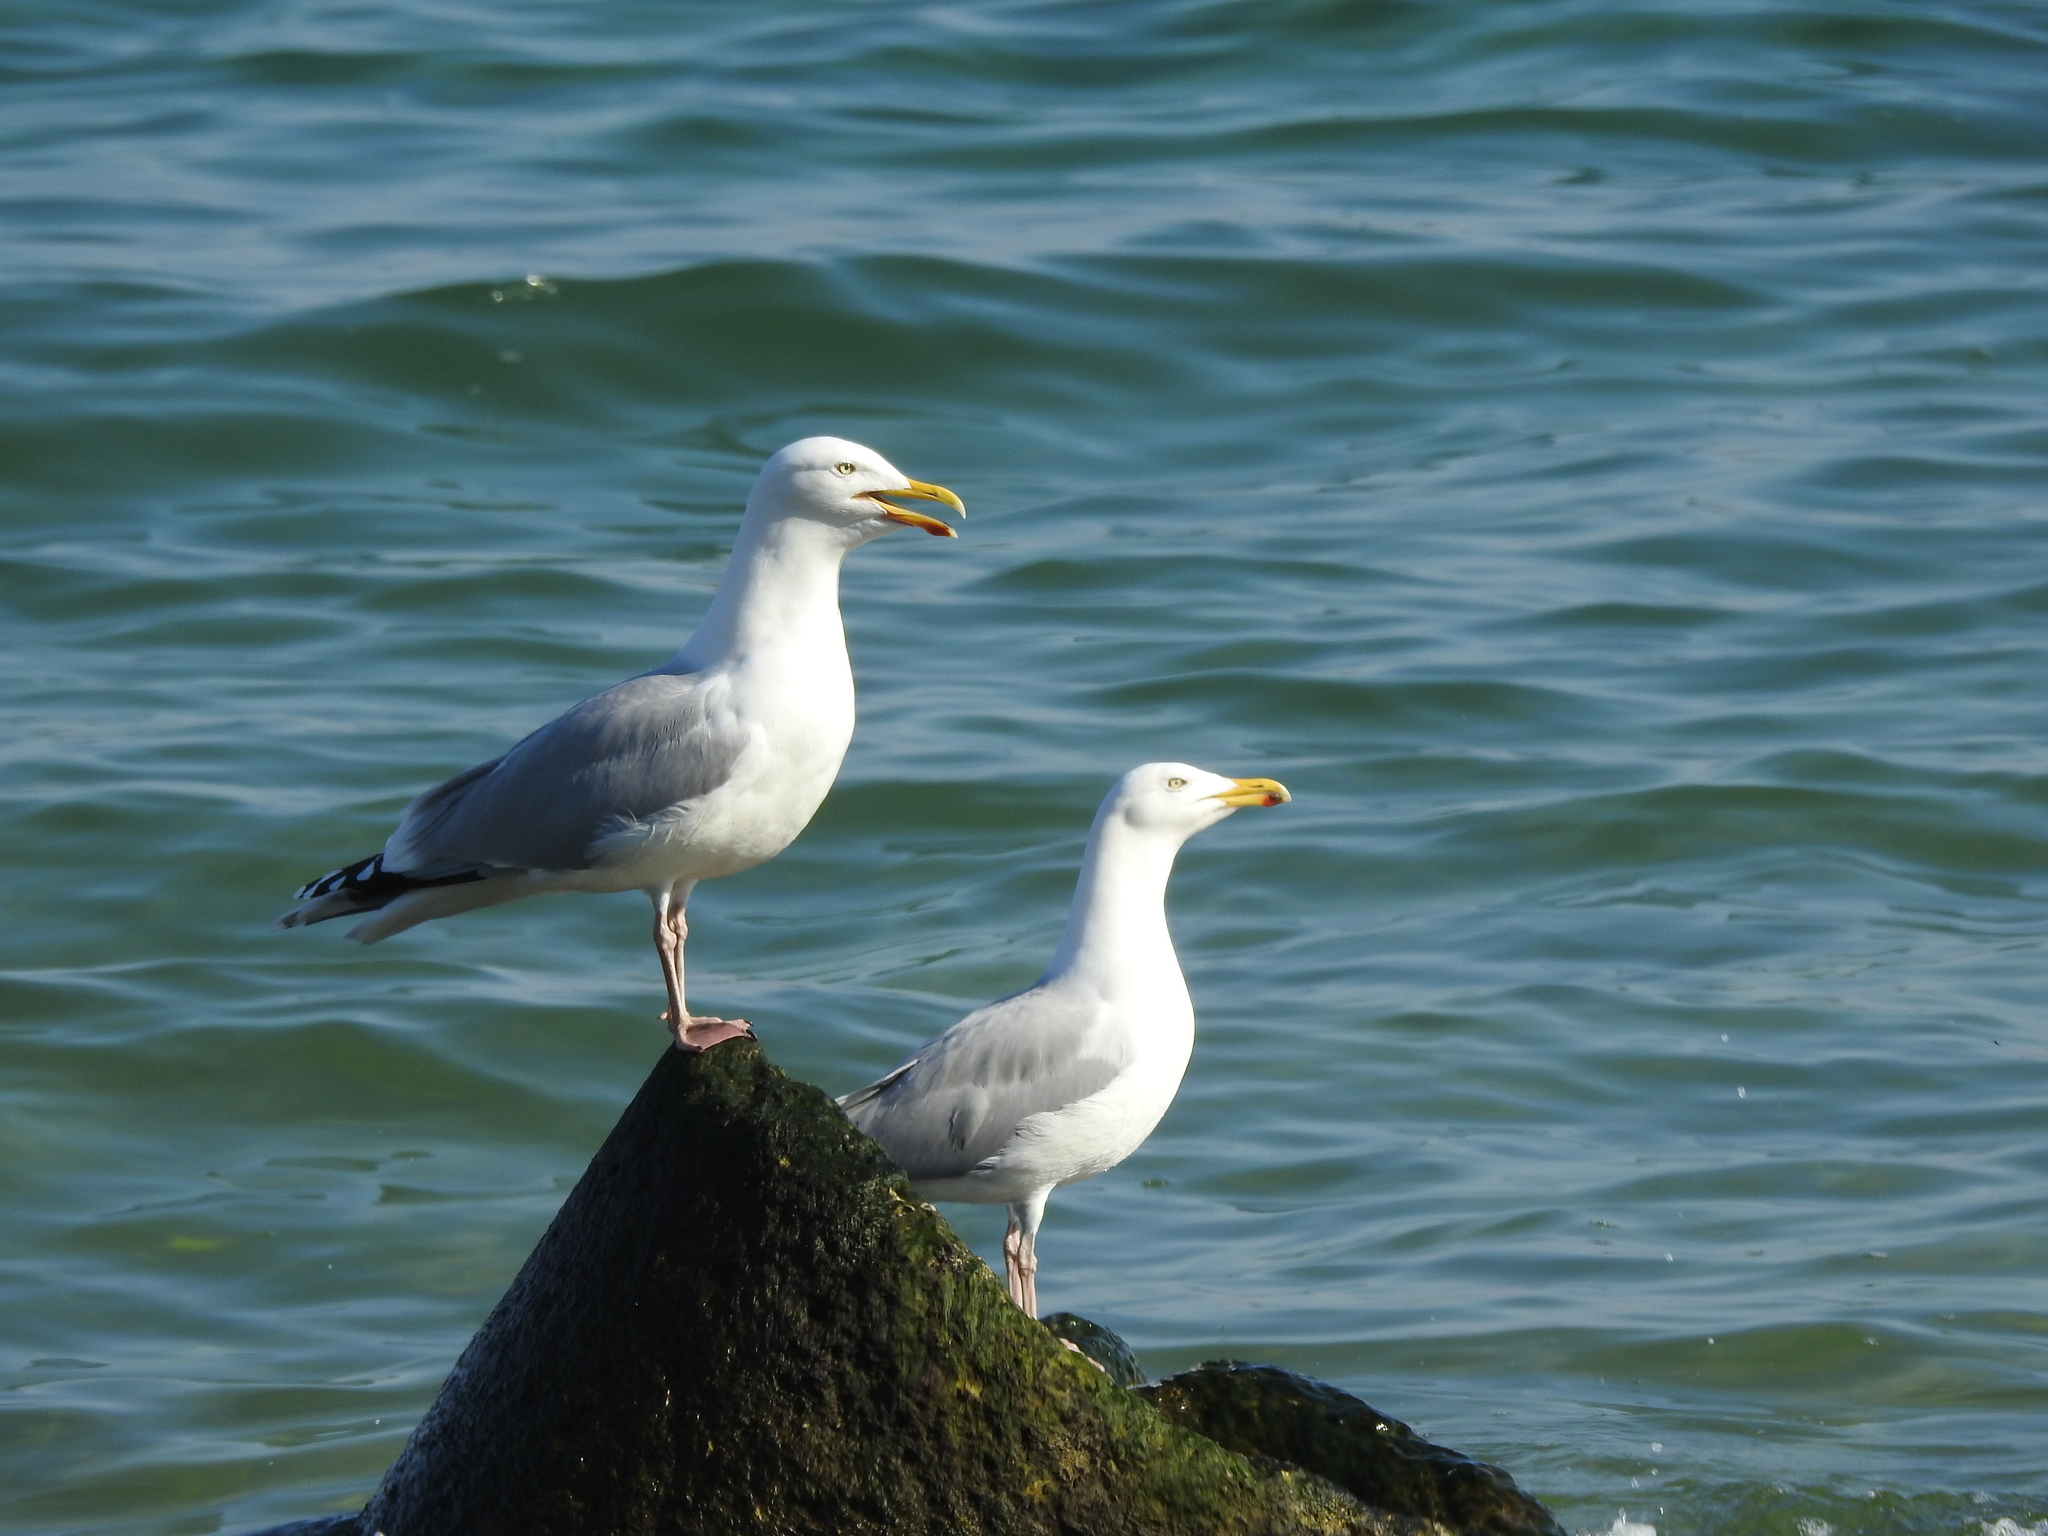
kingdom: Animalia
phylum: Chordata
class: Aves
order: Charadriiformes
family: Laridae
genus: Larus
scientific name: Larus argentatus
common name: Herring gull
